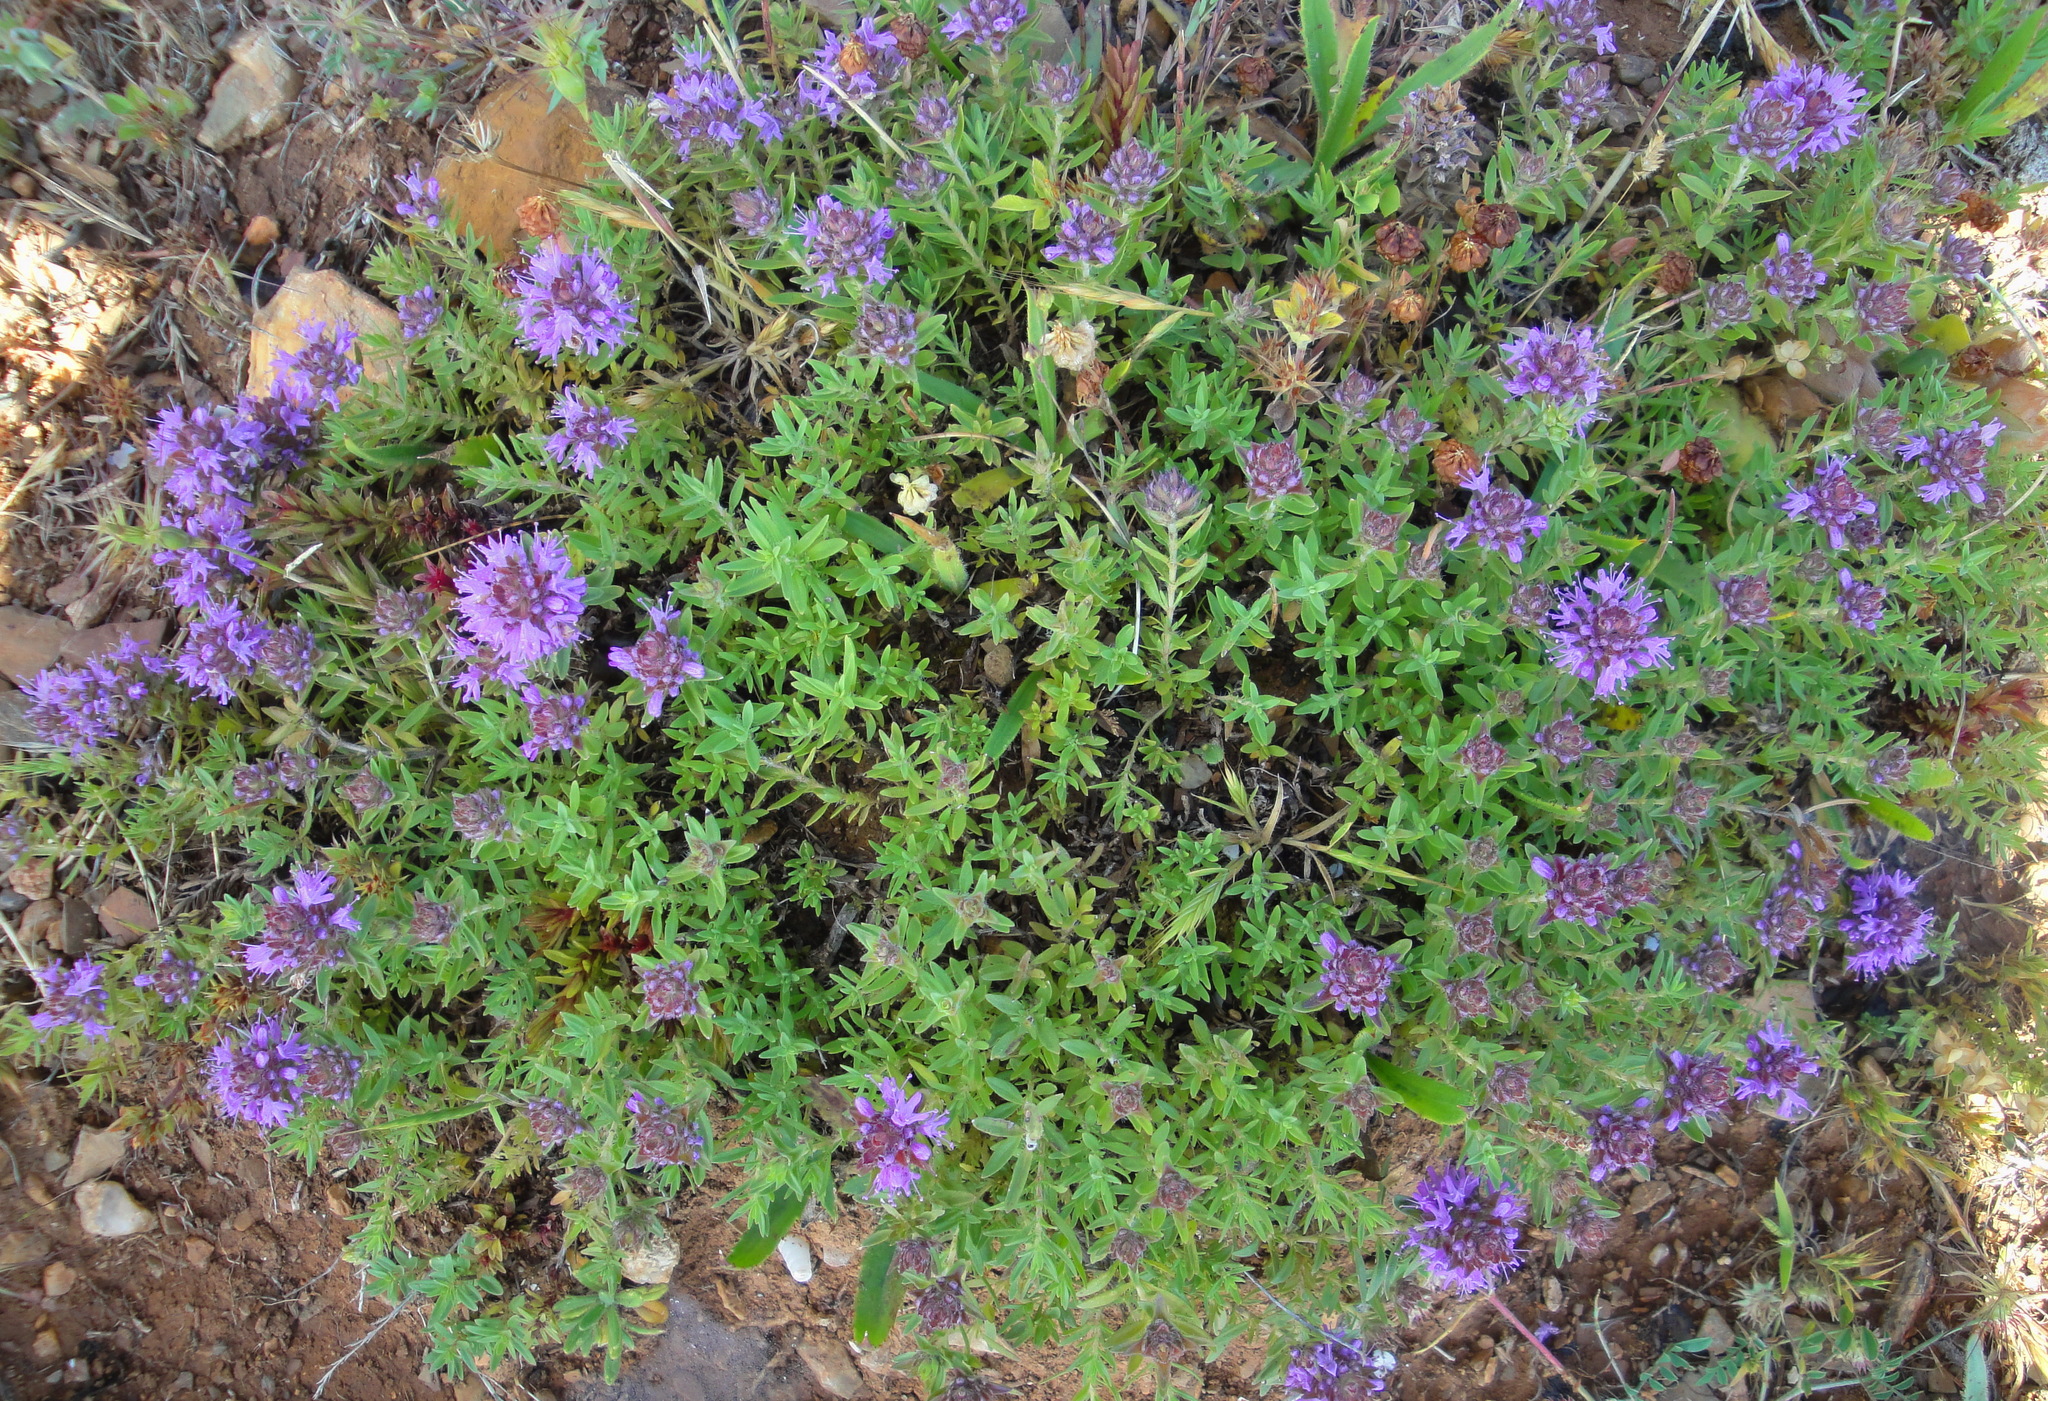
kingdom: Plantae
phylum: Tracheophyta
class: Magnoliopsida
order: Lamiales
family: Lamiaceae
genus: Thymus
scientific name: Thymus numidicus
